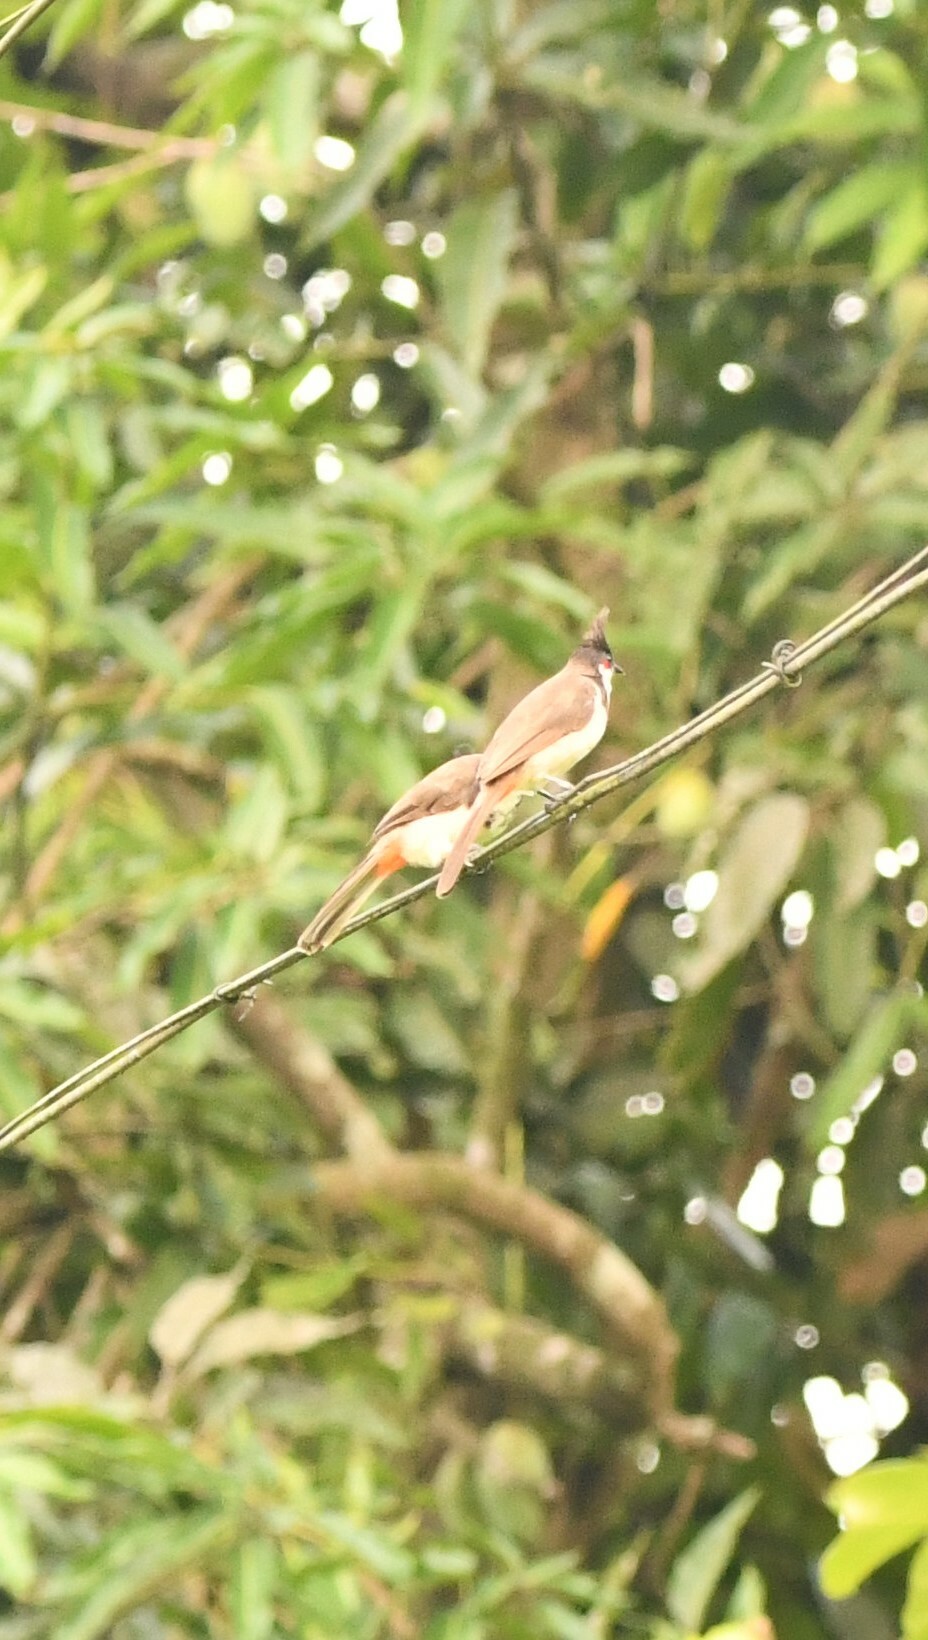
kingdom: Animalia
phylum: Chordata
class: Aves
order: Passeriformes
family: Pycnonotidae
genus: Pycnonotus
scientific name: Pycnonotus jocosus
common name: Red-whiskered bulbul
